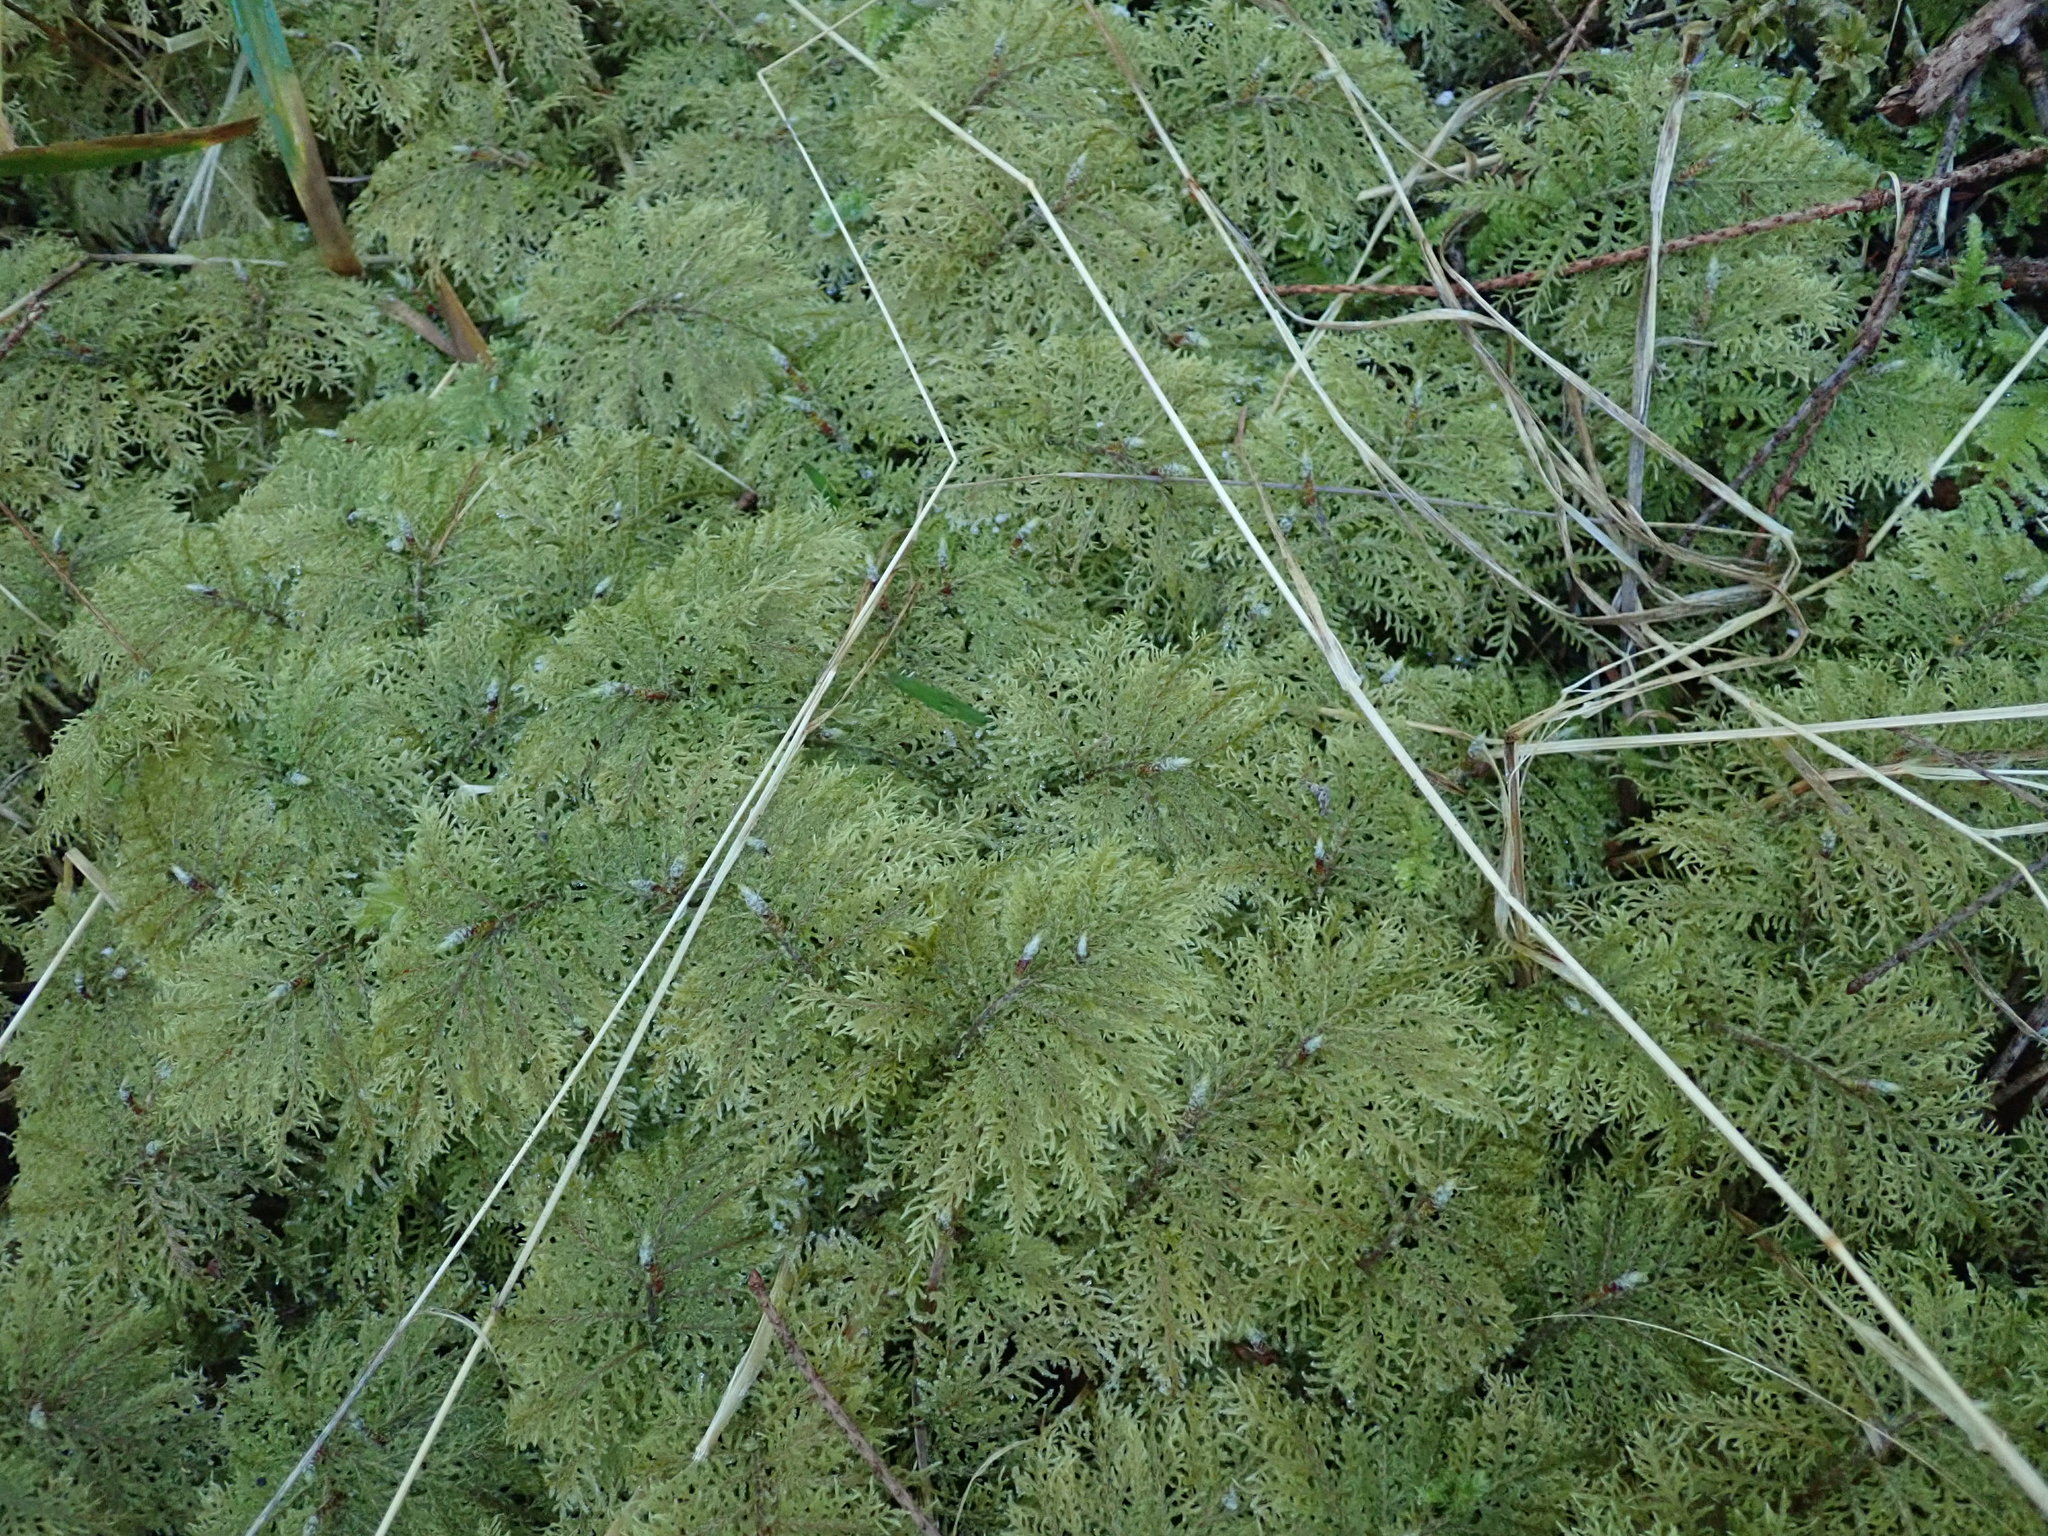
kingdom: Plantae
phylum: Bryophyta
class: Bryopsida
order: Hypnales
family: Hylocomiaceae
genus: Hylocomium
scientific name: Hylocomium splendens
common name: Stairstep moss
